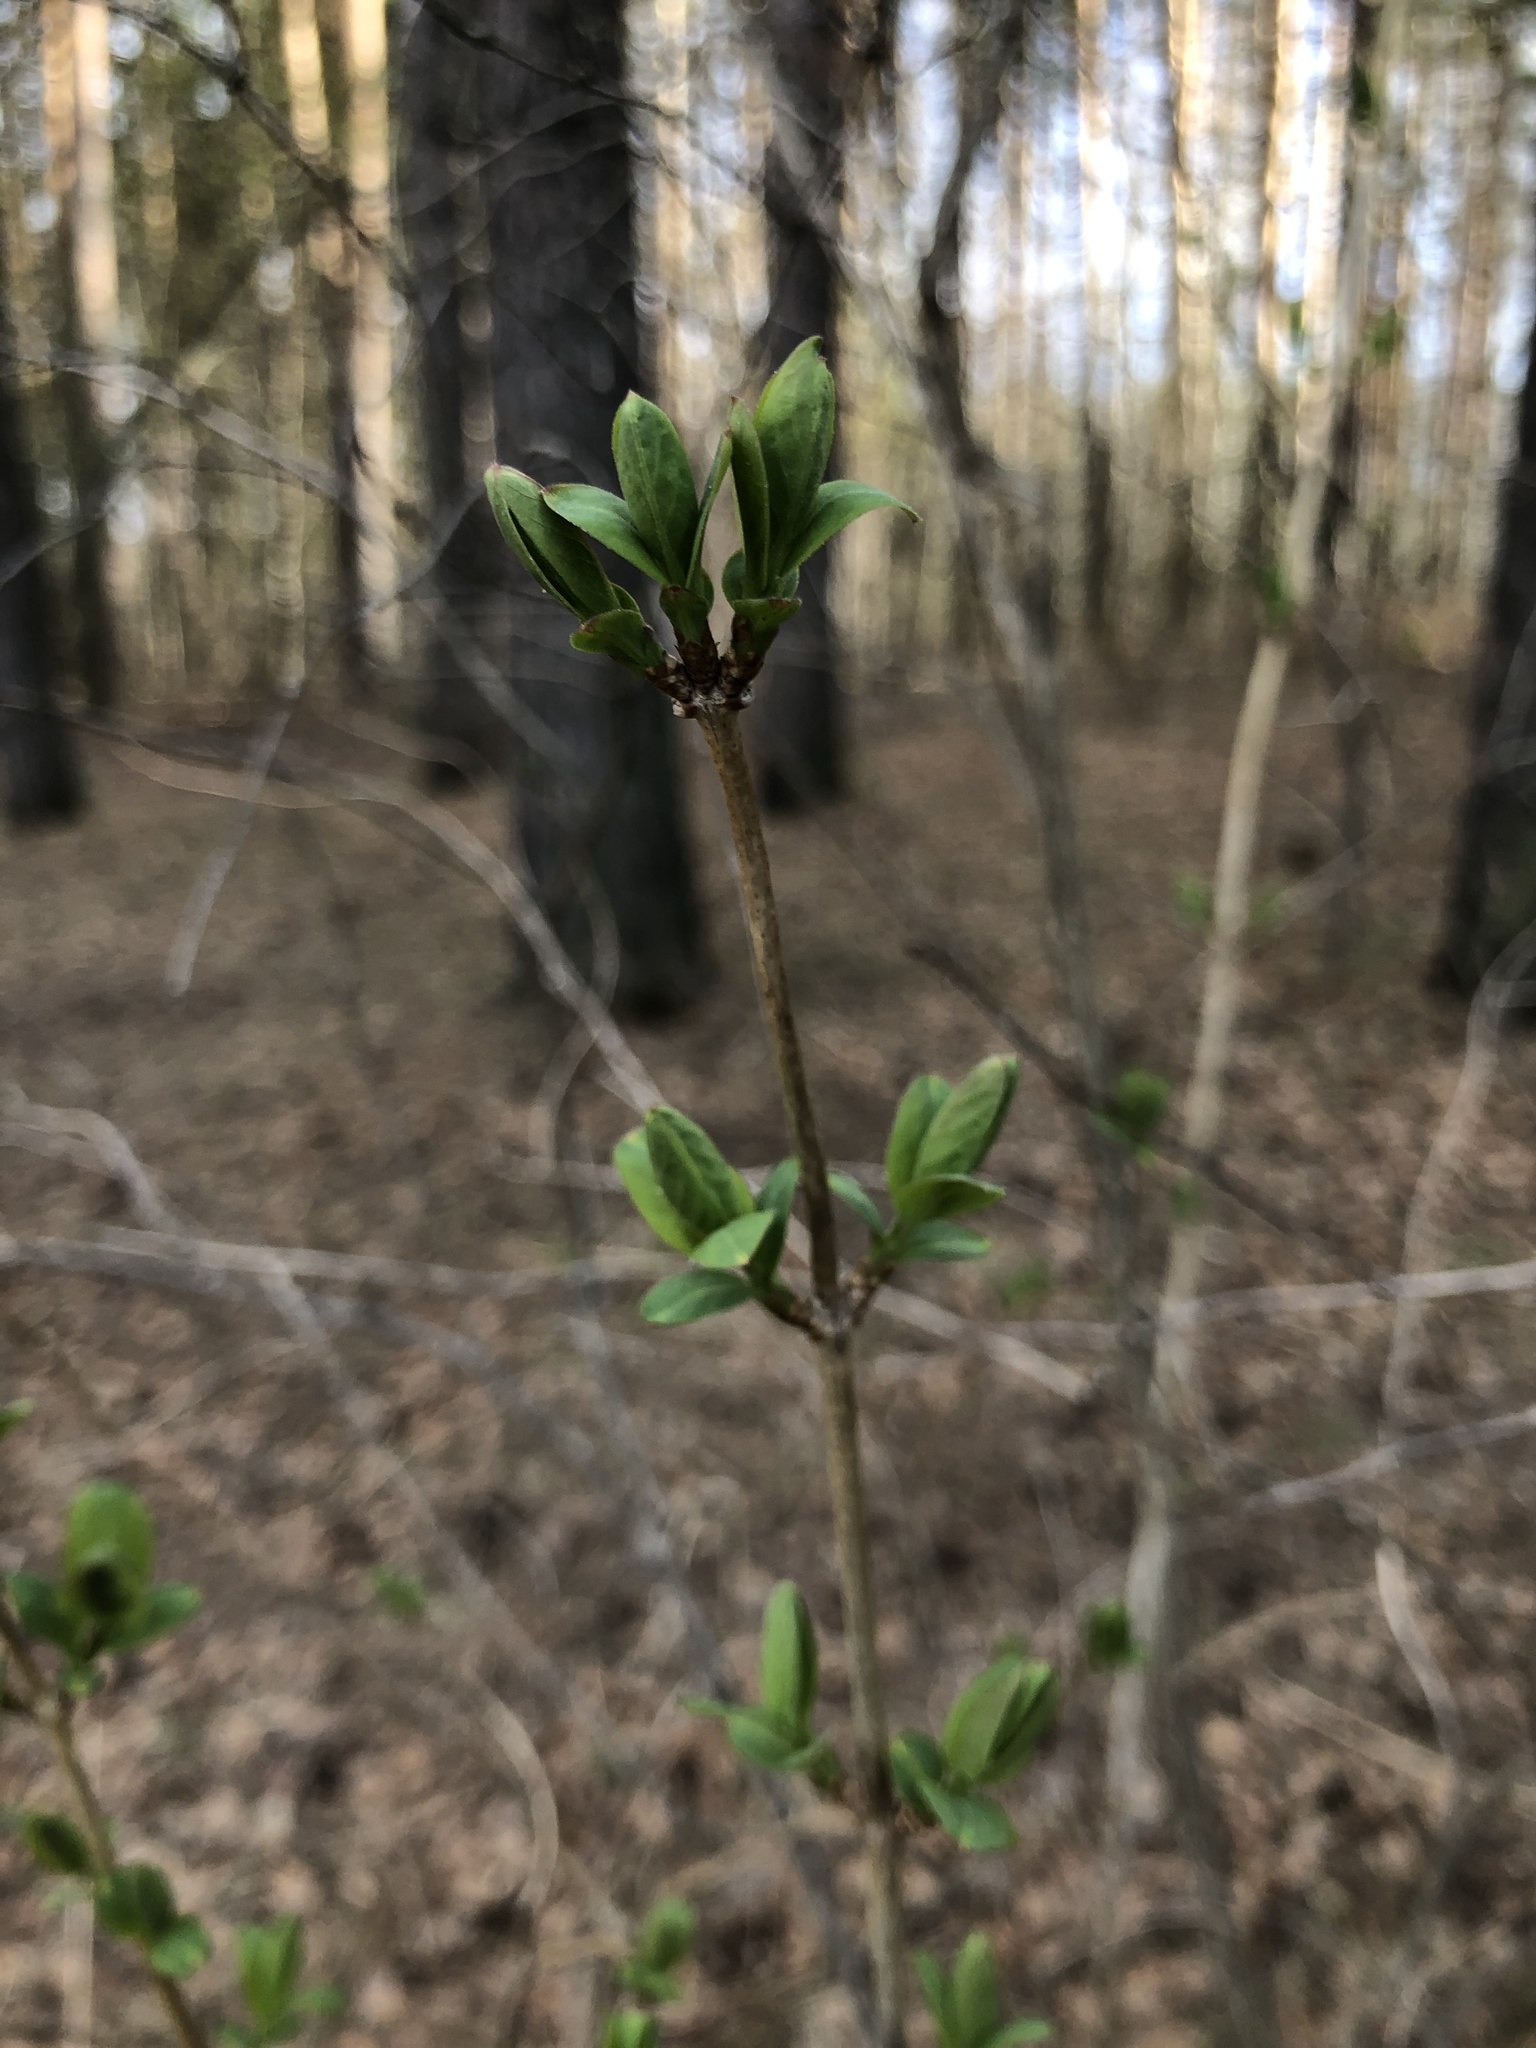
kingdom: Plantae
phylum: Tracheophyta
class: Magnoliopsida
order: Dipsacales
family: Caprifoliaceae
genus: Lonicera
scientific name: Lonicera tatarica
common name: Tatarian honeysuckle
